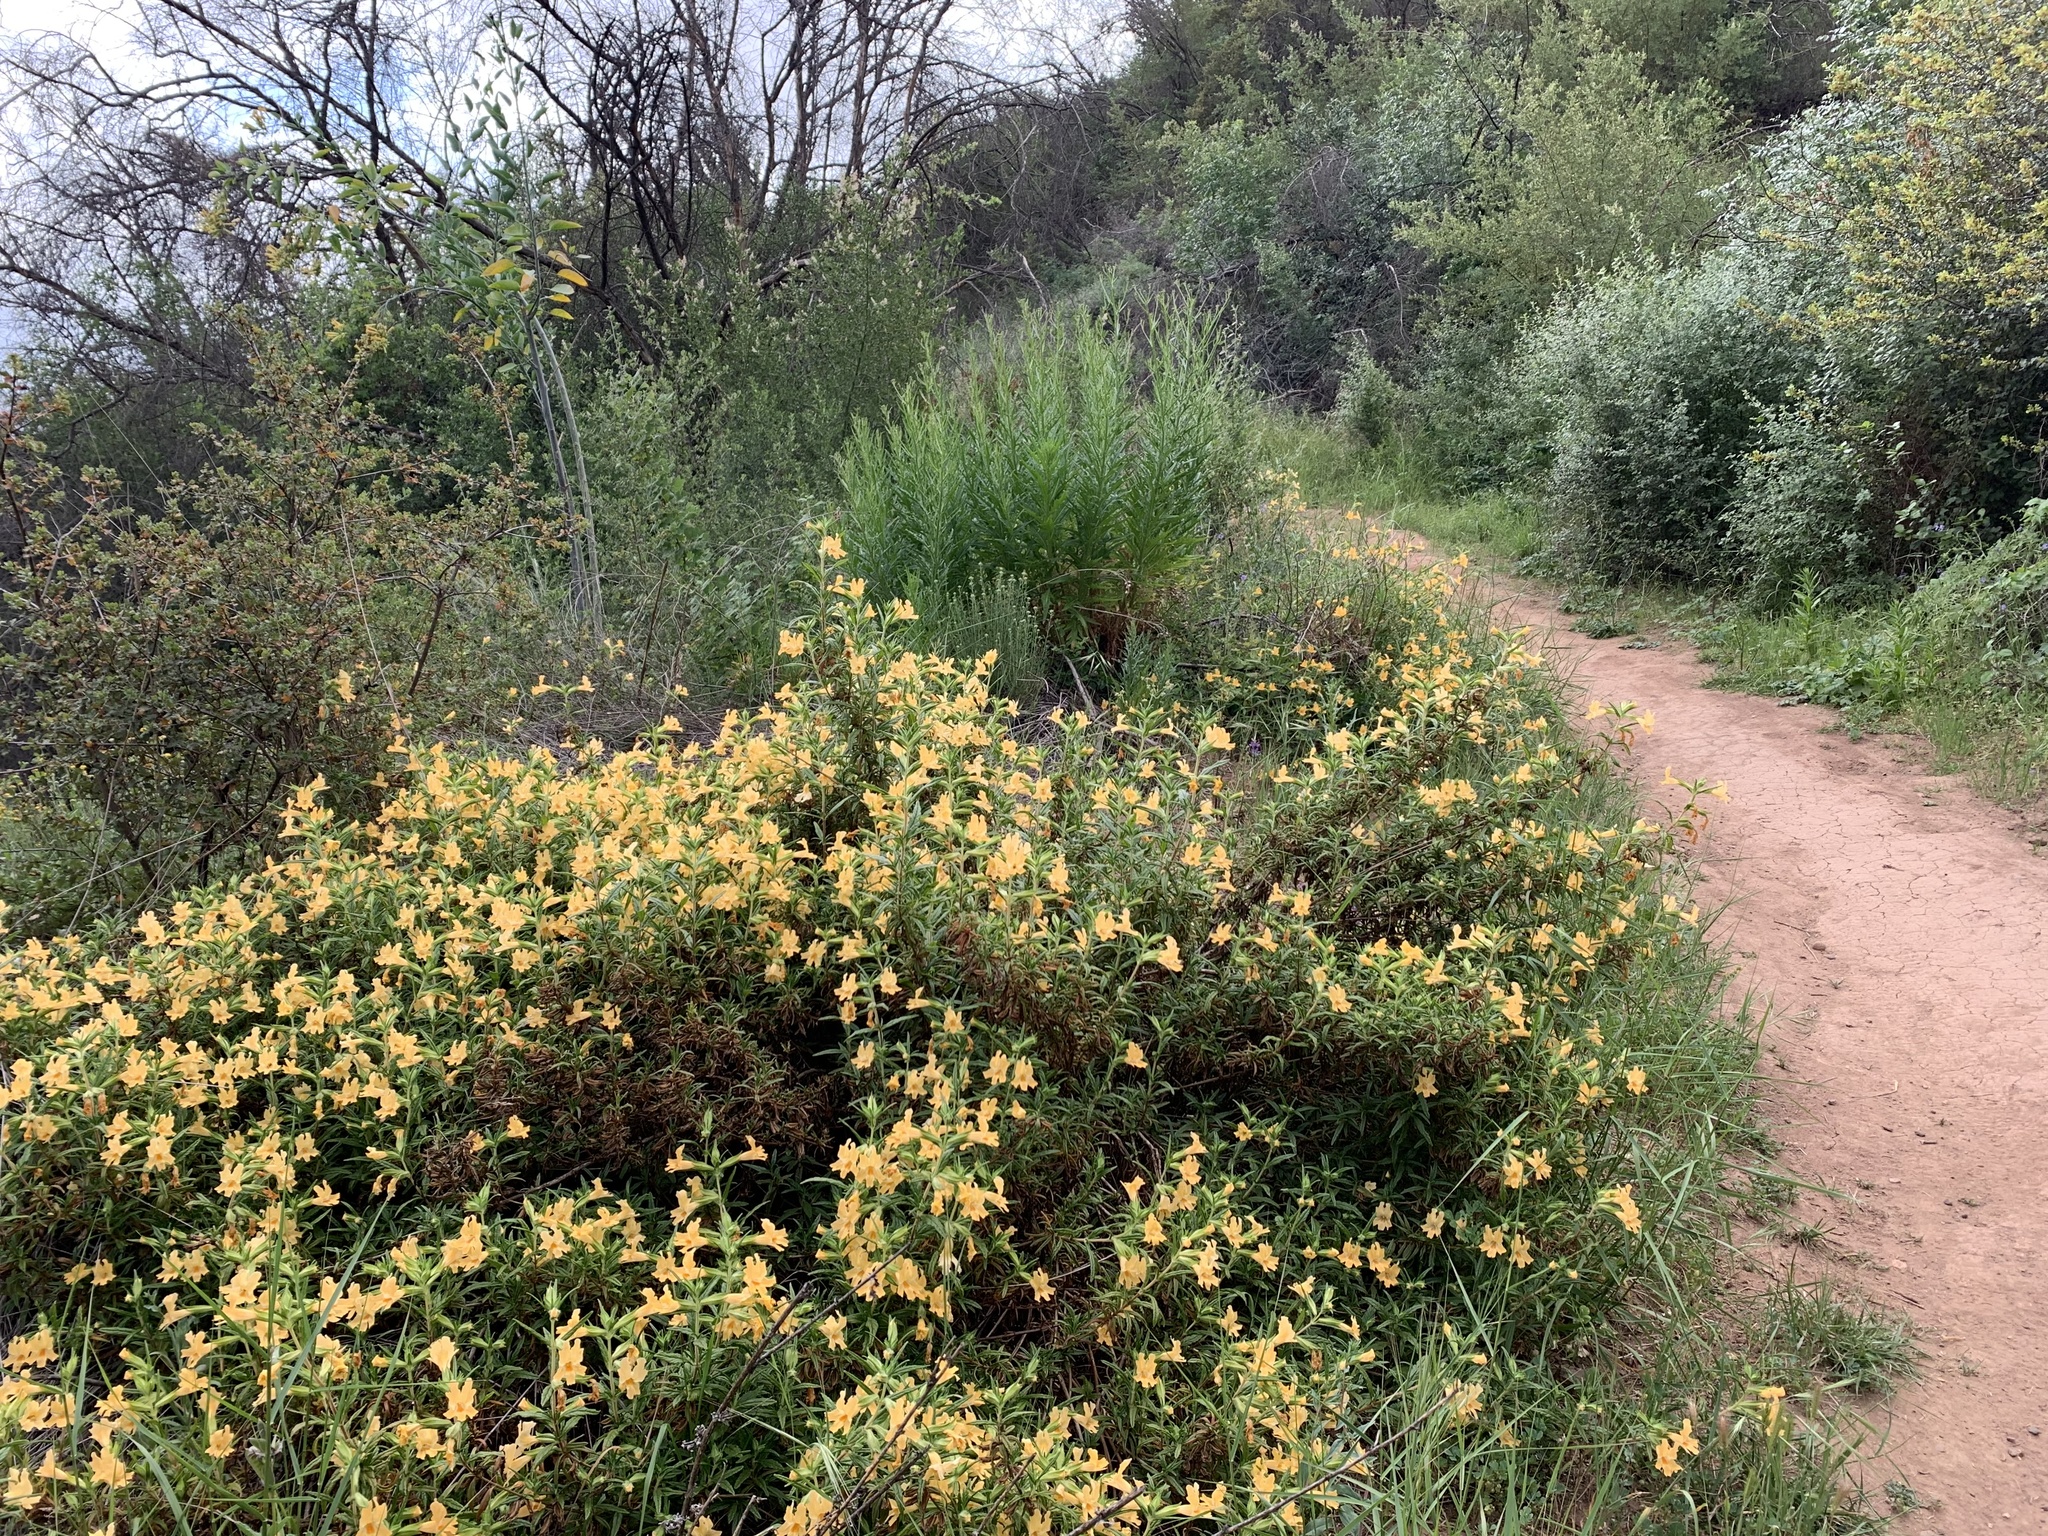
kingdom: Plantae
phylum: Tracheophyta
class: Magnoliopsida
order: Lamiales
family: Phrymaceae
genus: Diplacus
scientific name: Diplacus longiflorus
